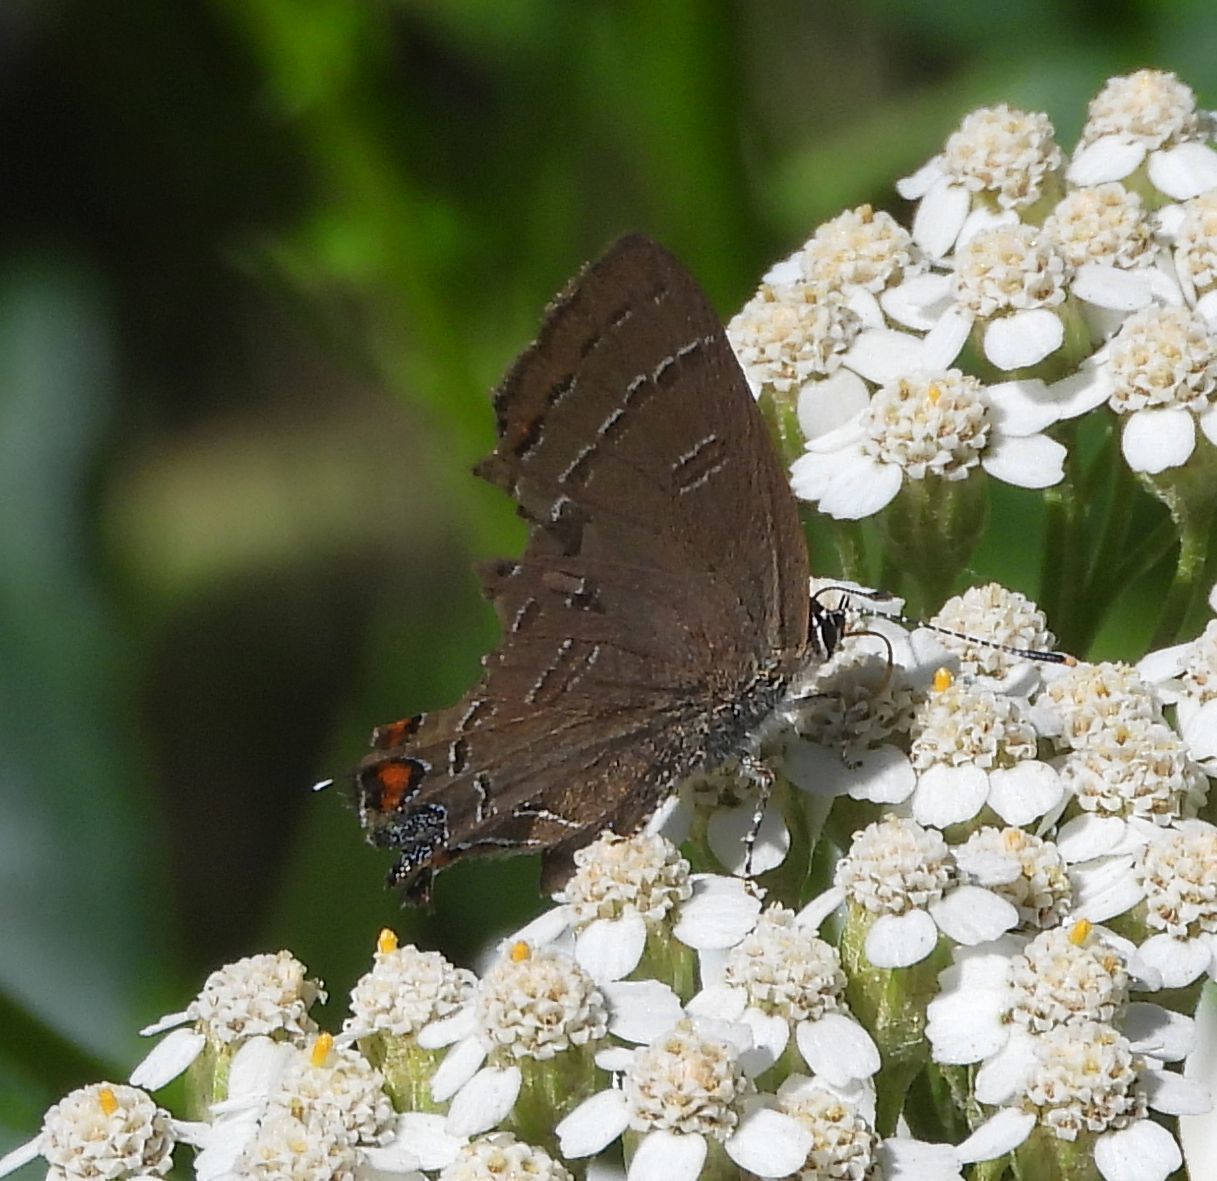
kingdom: Animalia
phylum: Arthropoda
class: Insecta
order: Lepidoptera
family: Lycaenidae
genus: Satyrium
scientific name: Satyrium calanus
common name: Banded hairstreak
